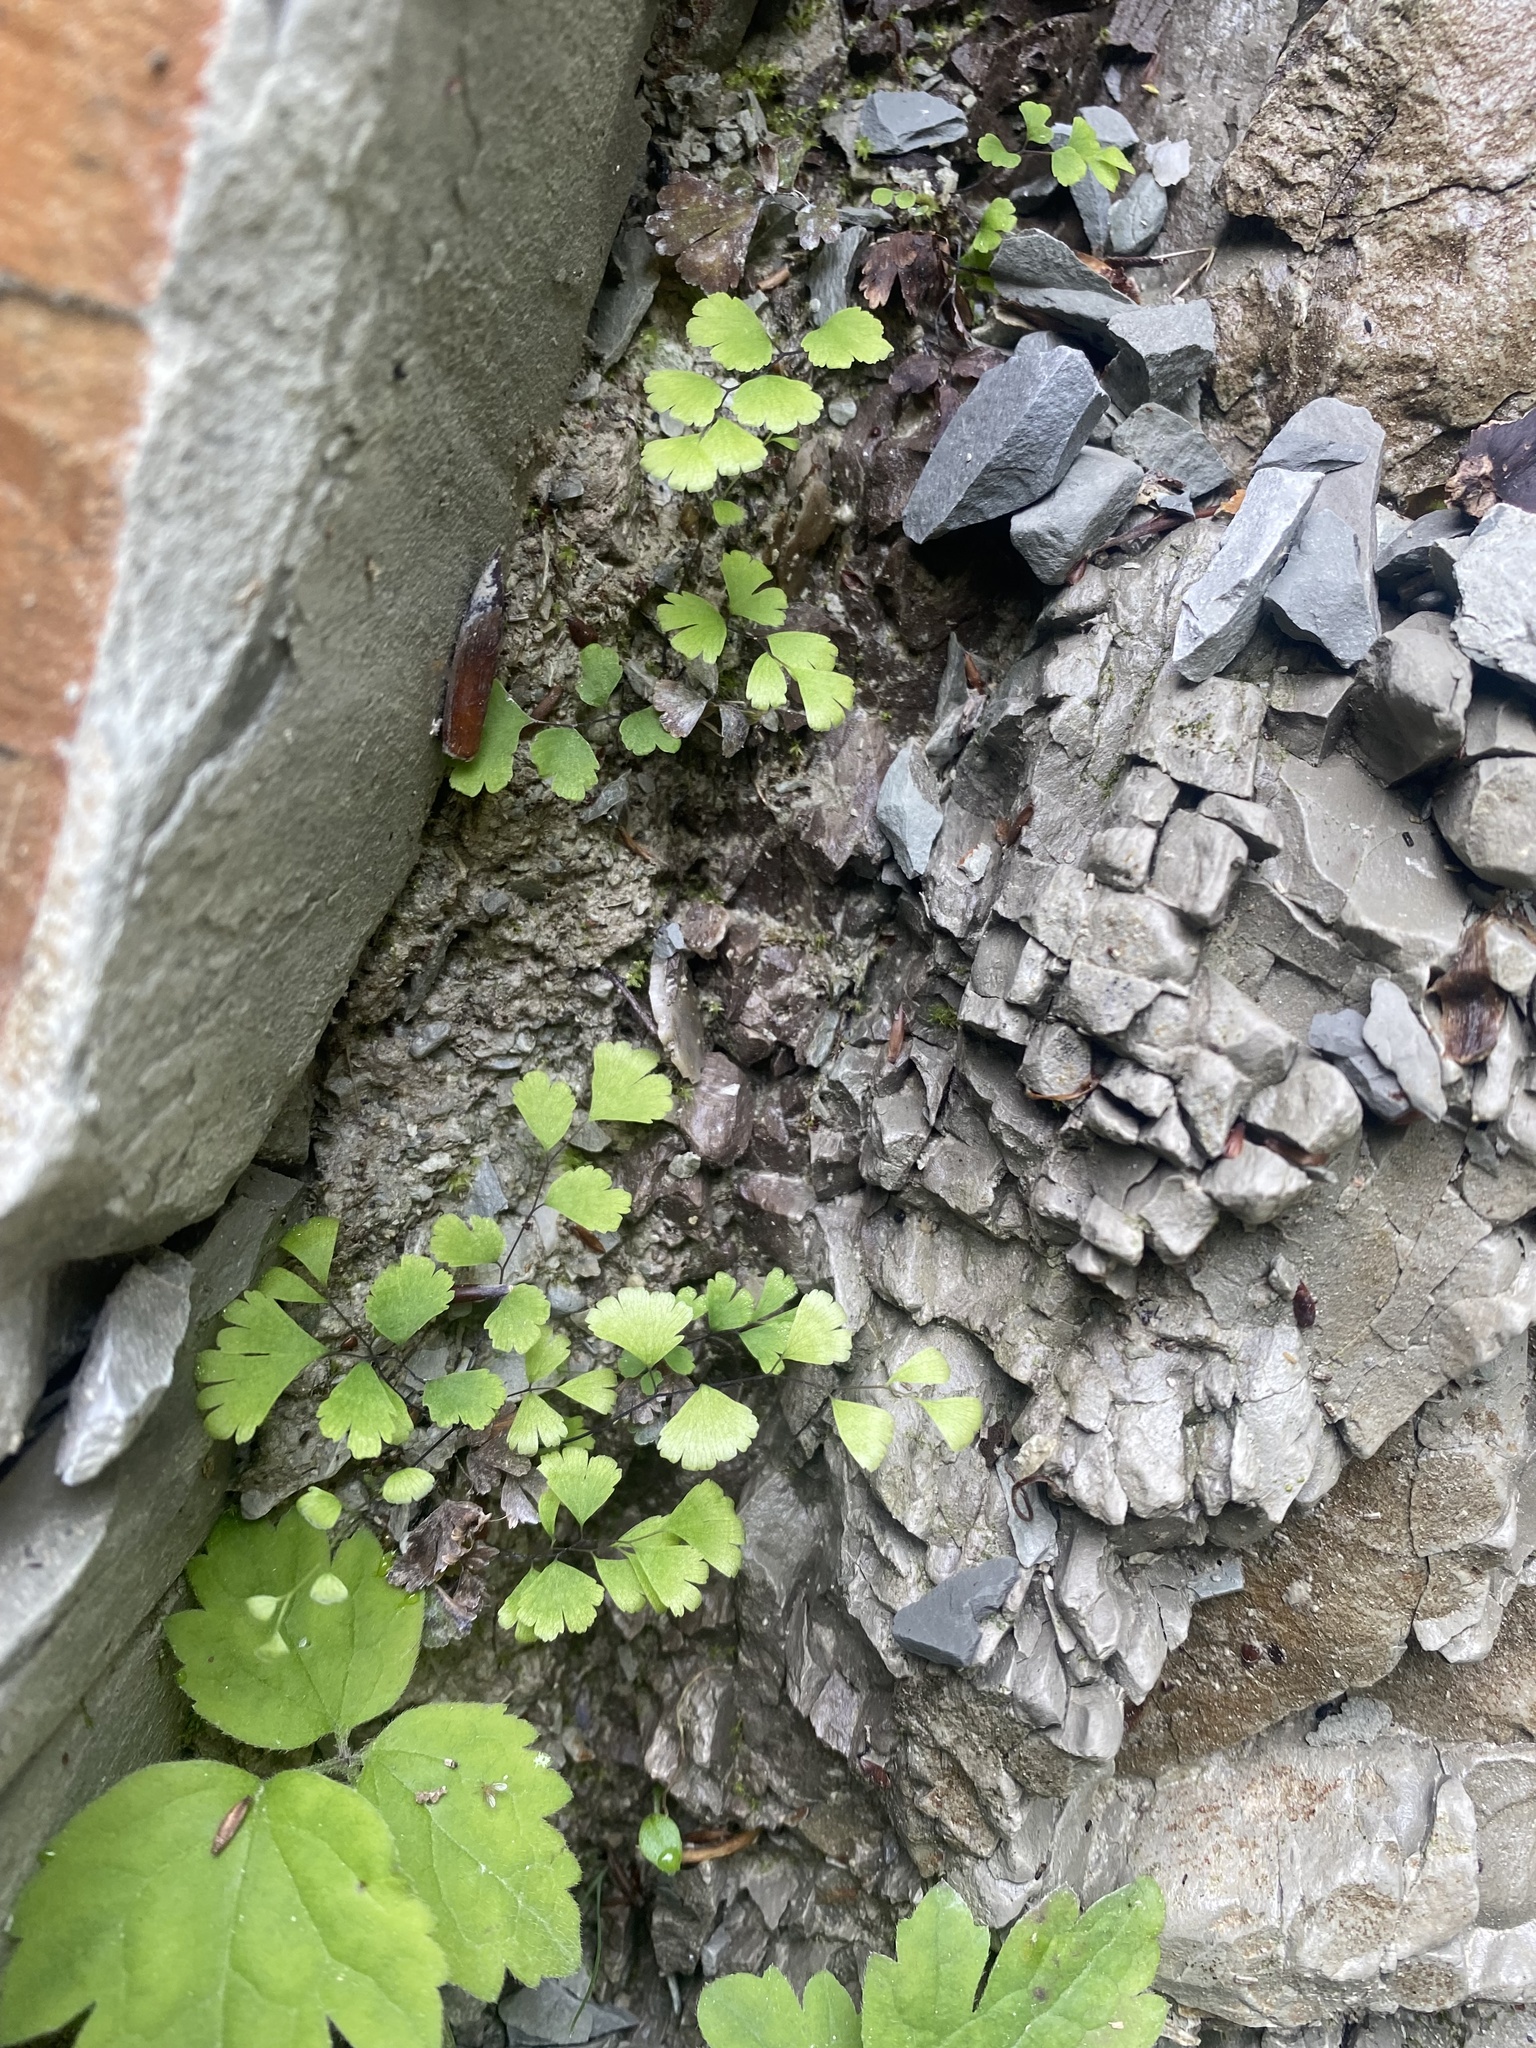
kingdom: Plantae
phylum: Tracheophyta
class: Polypodiopsida
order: Polypodiales
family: Pteridaceae
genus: Adiantum
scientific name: Adiantum capillus-veneris
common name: Maidenhair fern
